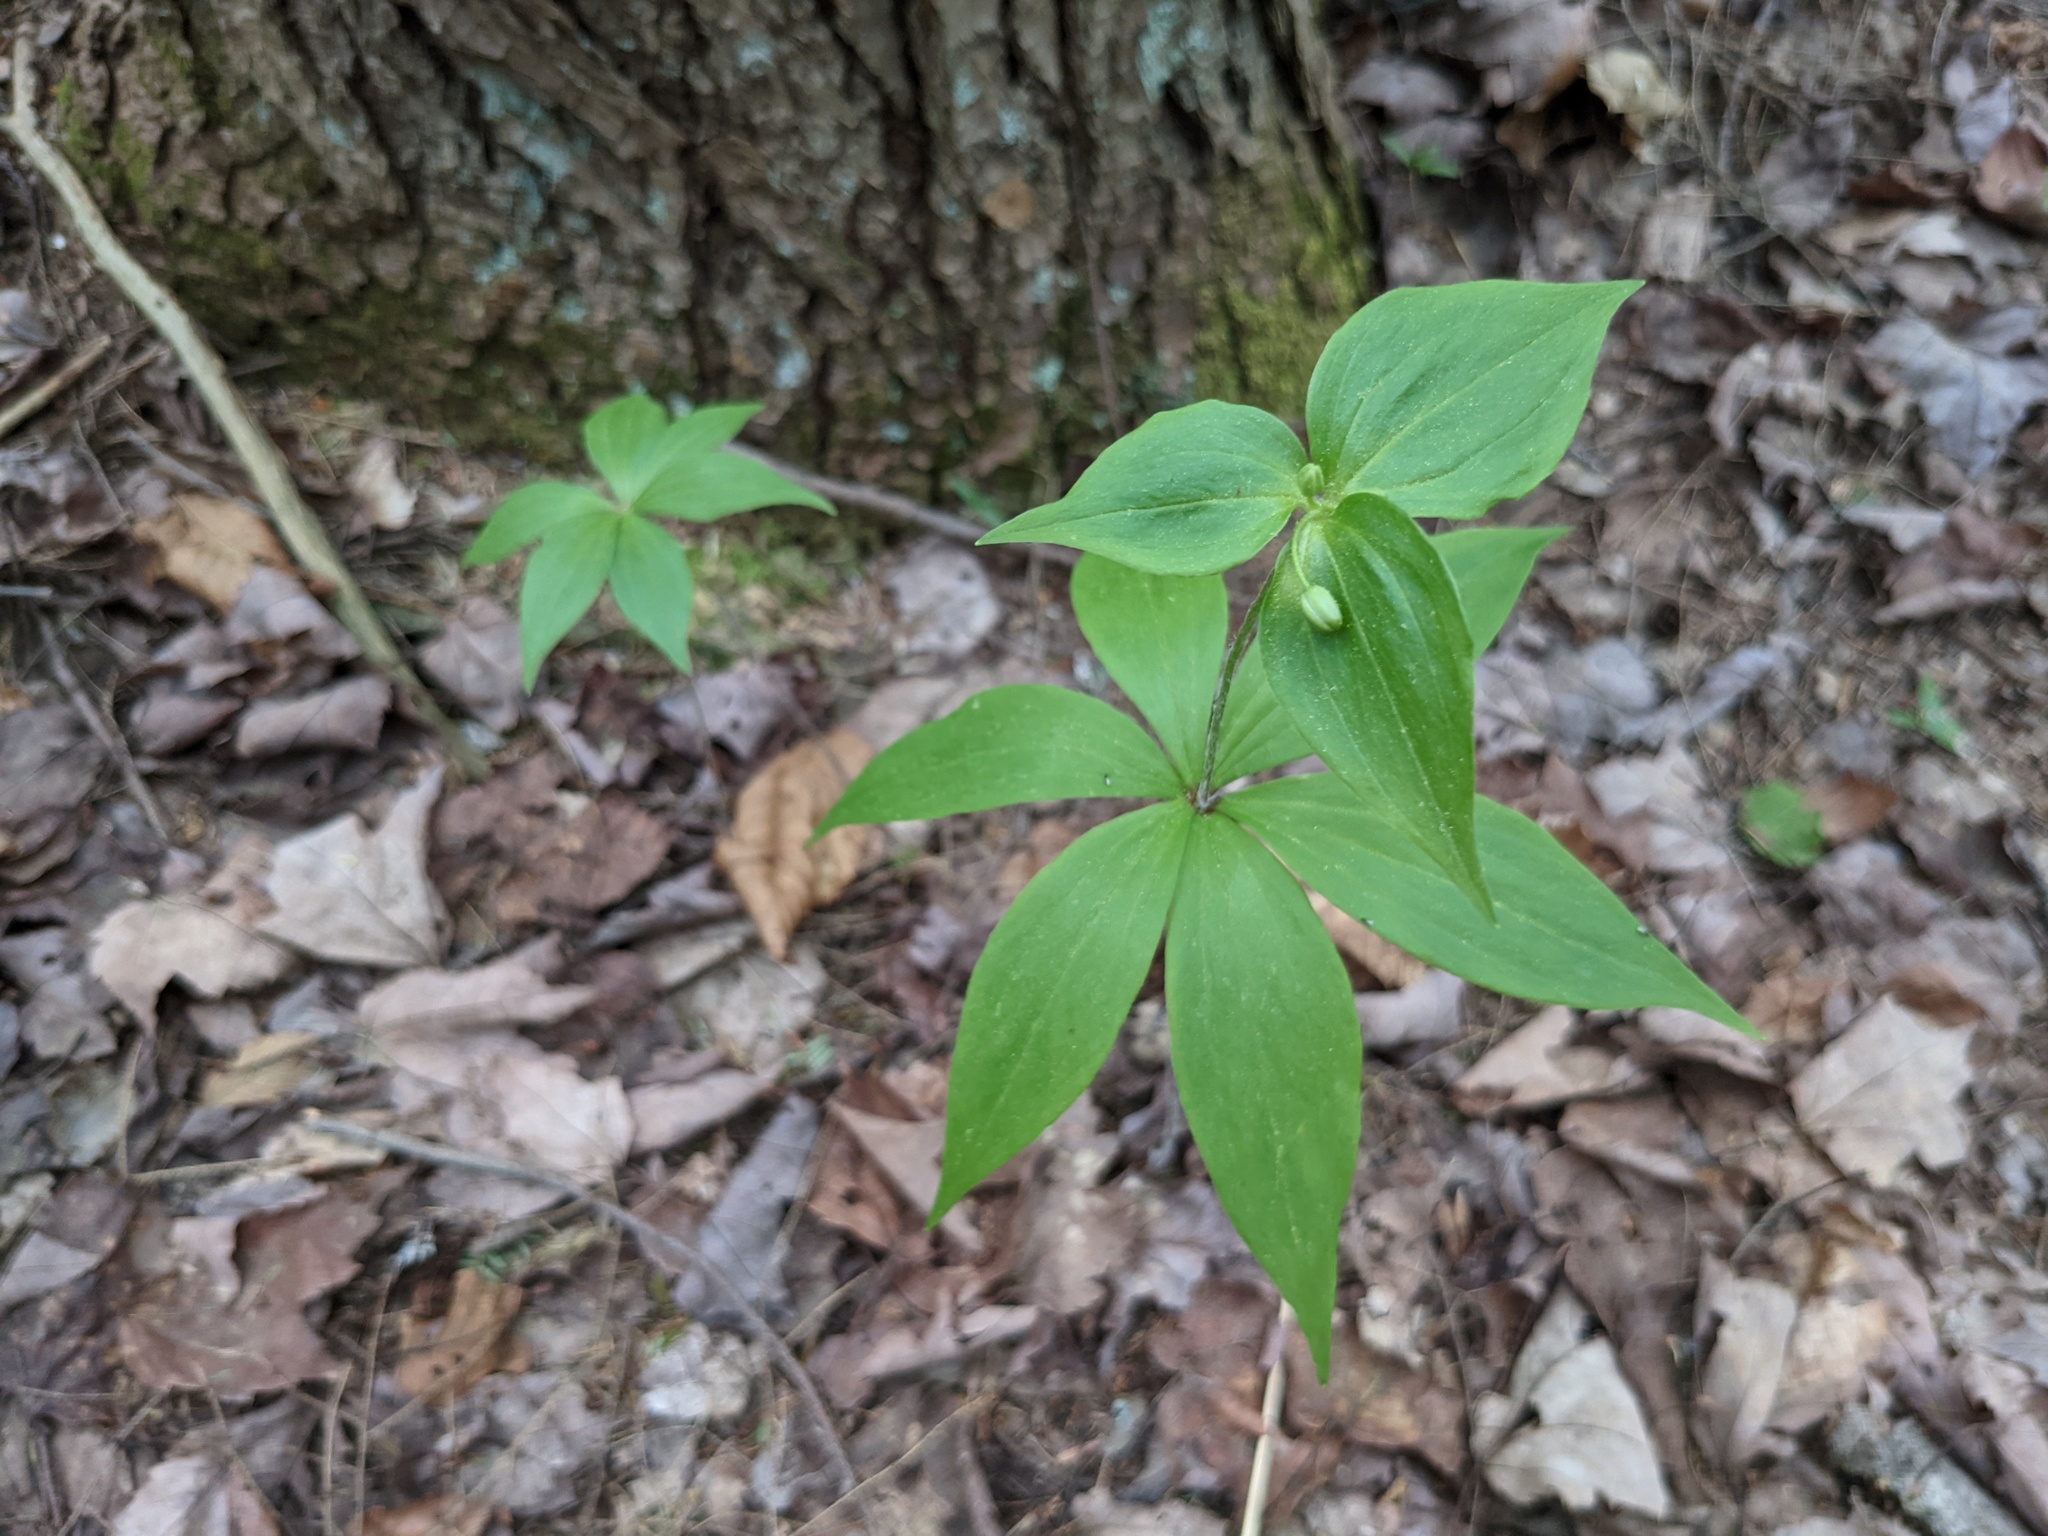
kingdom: Plantae
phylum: Tracheophyta
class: Liliopsida
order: Liliales
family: Liliaceae
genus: Medeola
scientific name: Medeola virginiana
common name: Indian cucumber-root
